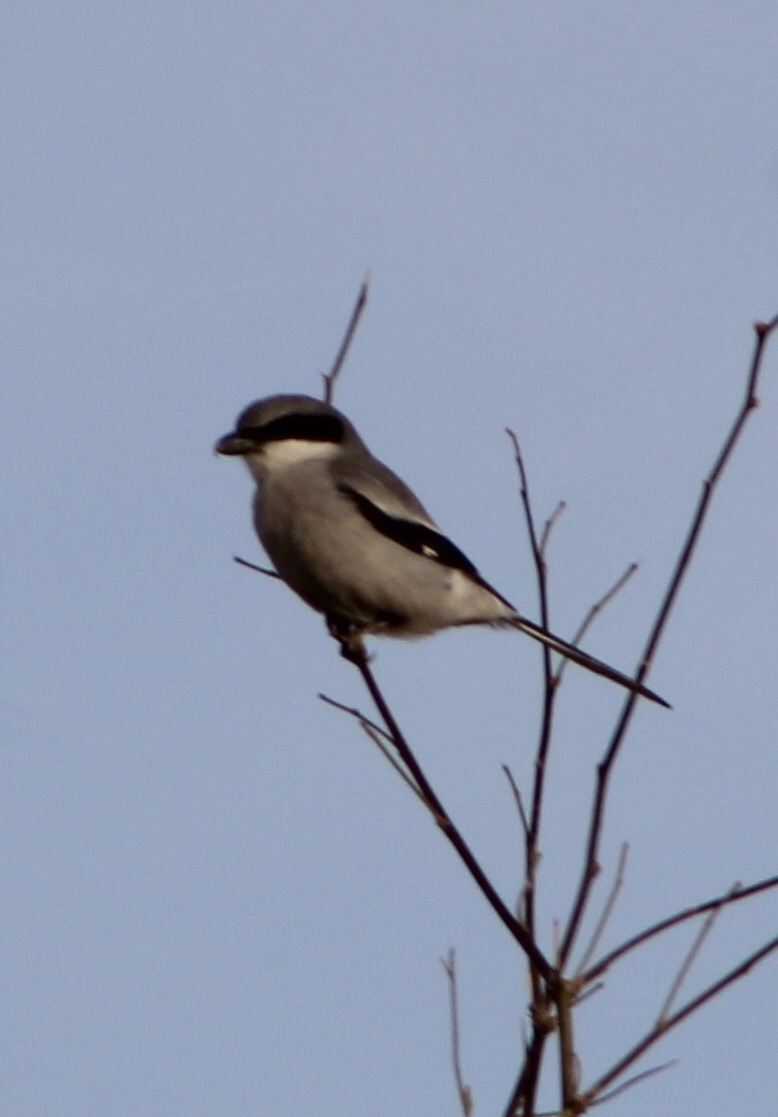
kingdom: Animalia
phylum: Chordata
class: Aves
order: Passeriformes
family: Laniidae
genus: Lanius
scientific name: Lanius ludovicianus
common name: Loggerhead shrike
